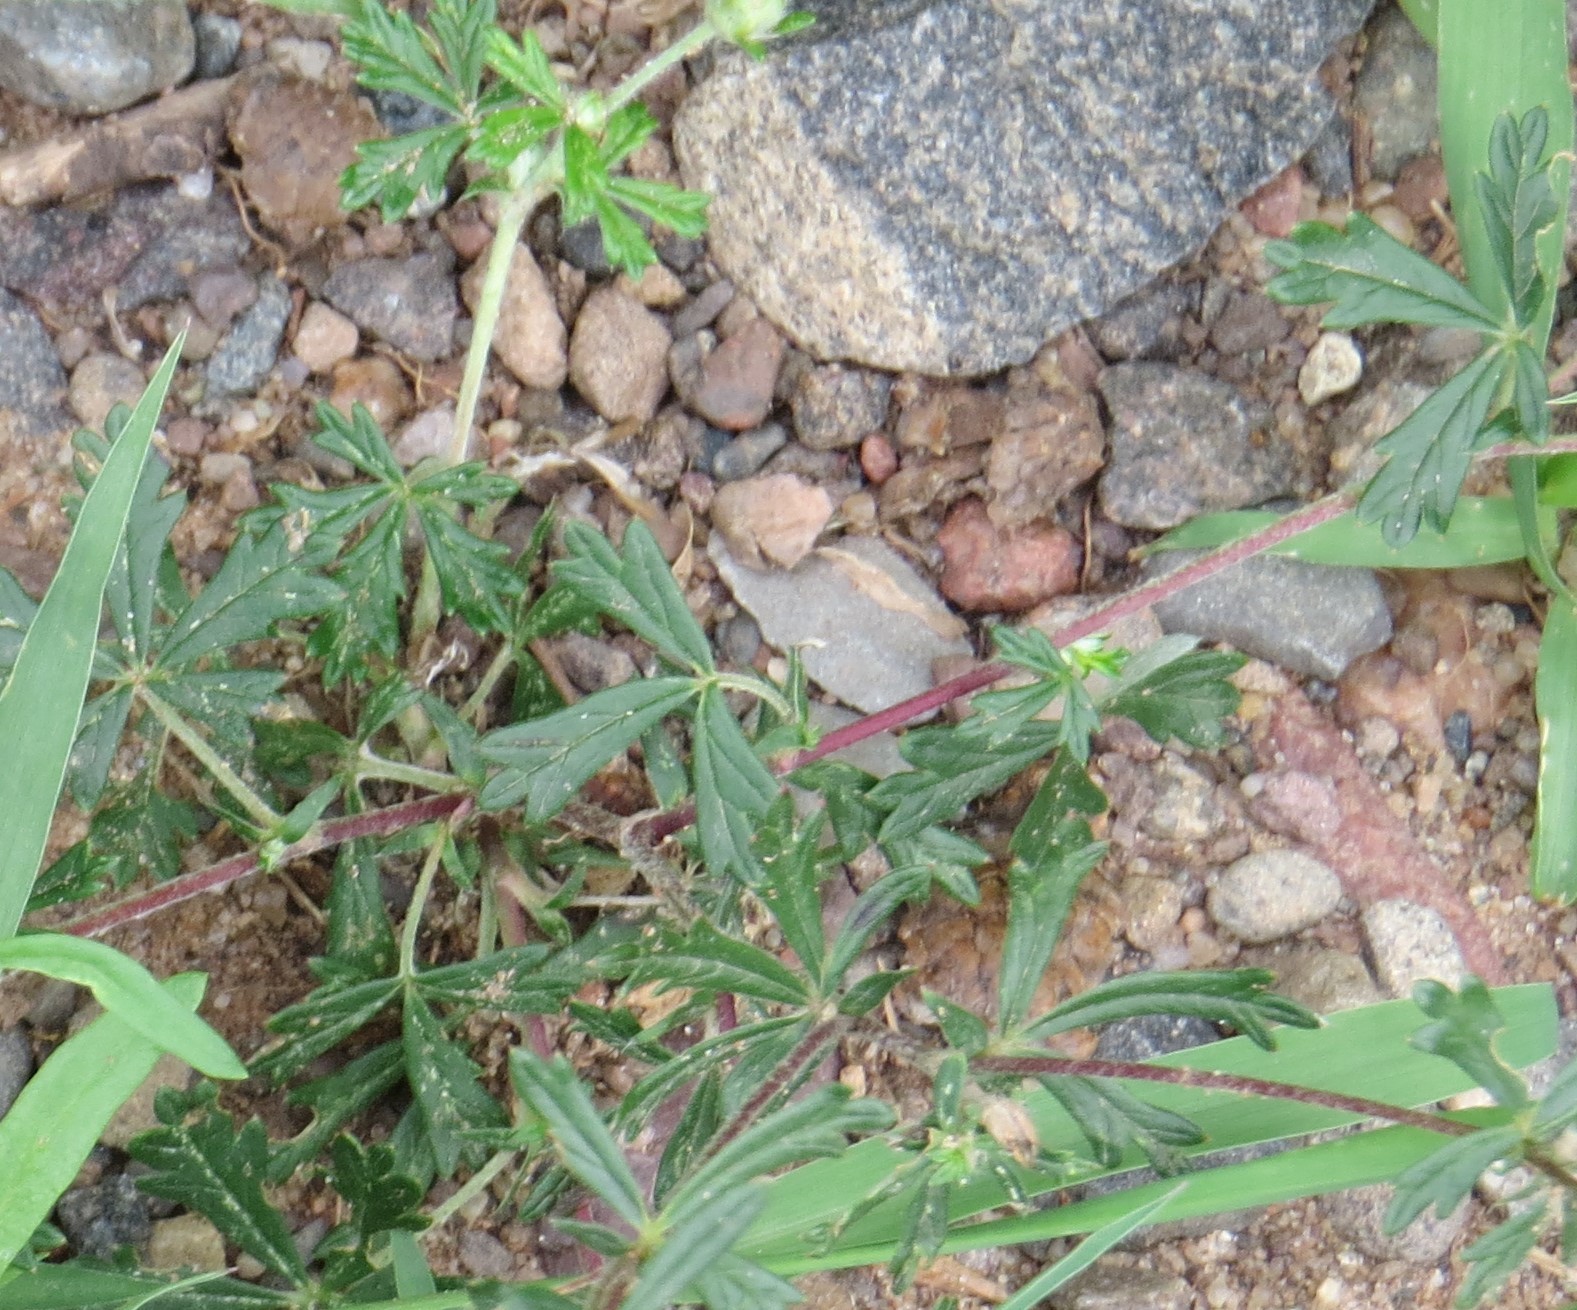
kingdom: Plantae
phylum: Tracheophyta
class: Magnoliopsida
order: Rosales
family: Rosaceae
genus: Potentilla
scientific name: Potentilla argentea
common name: Hoary cinquefoil
